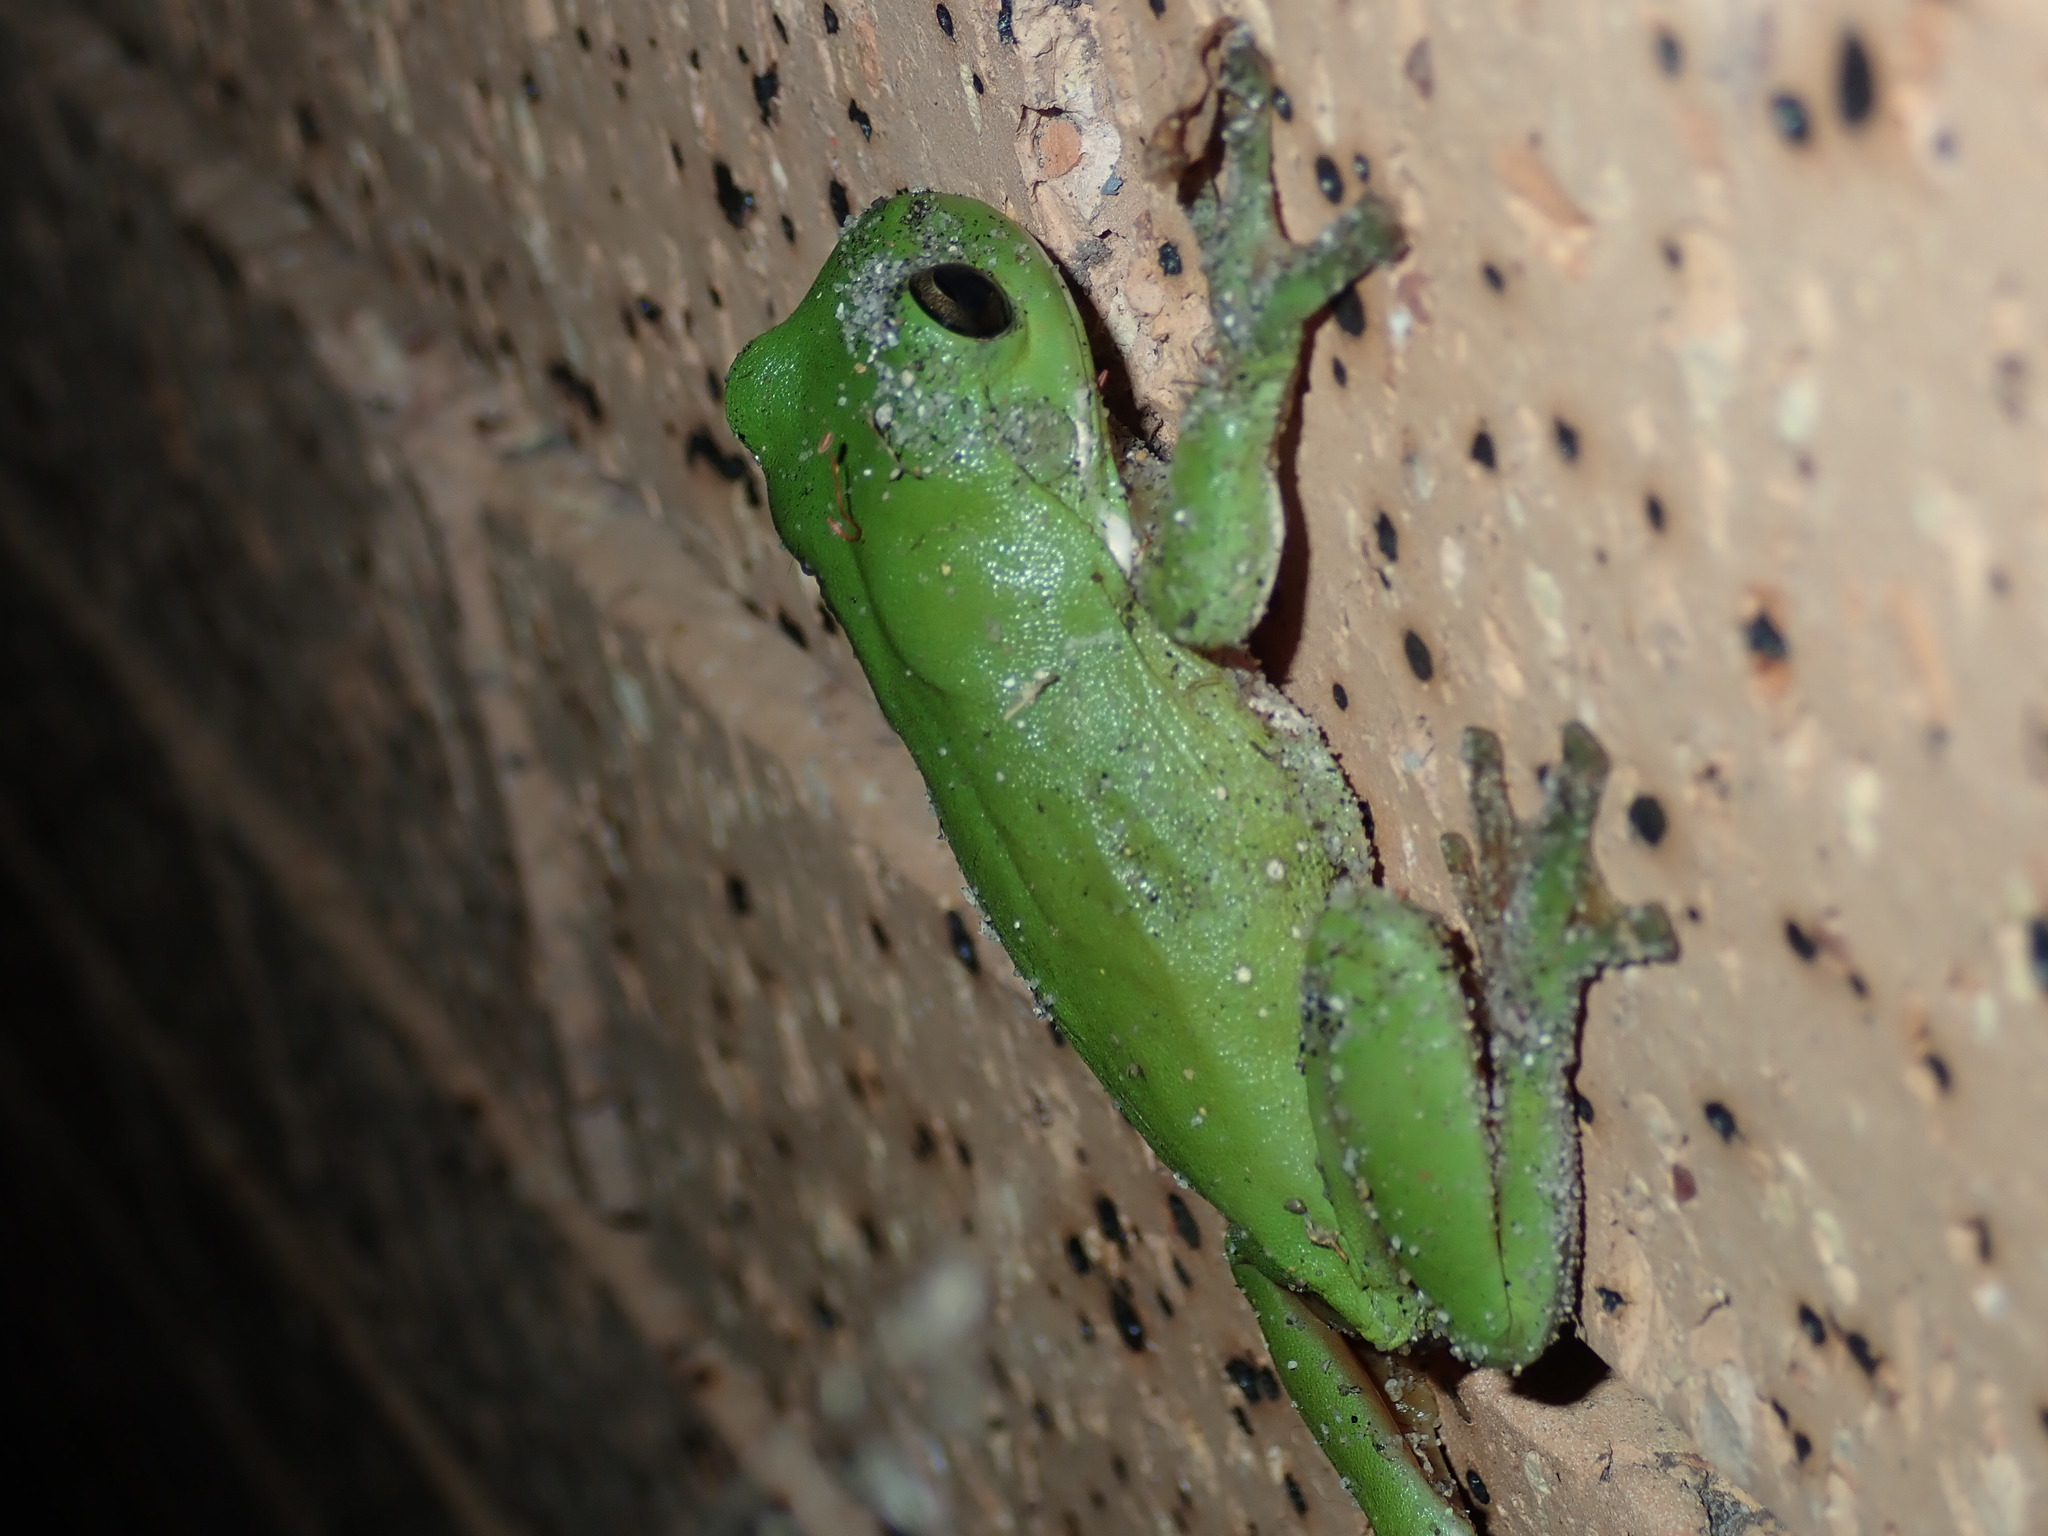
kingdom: Animalia
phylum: Chordata
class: Amphibia
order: Anura
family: Pelodryadidae
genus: Ranoidea
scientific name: Ranoidea caerulea
